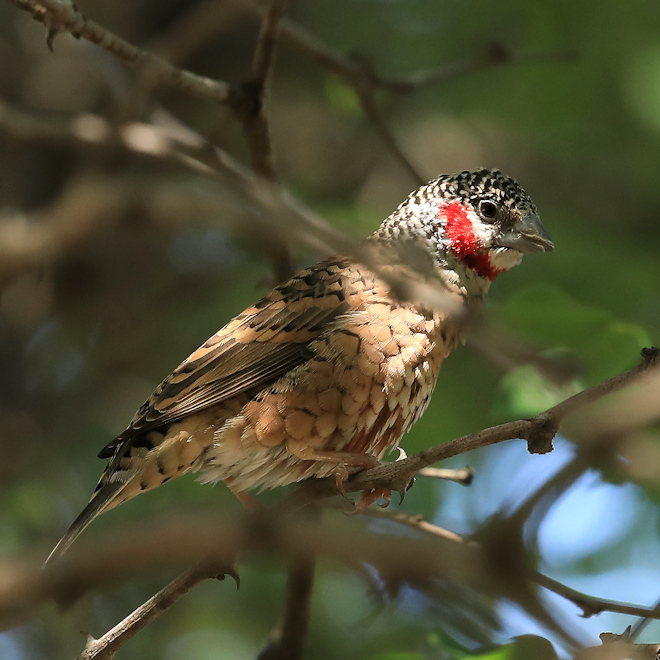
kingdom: Animalia
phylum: Chordata
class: Aves
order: Passeriformes
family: Estrildidae
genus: Amadina
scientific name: Amadina fasciata
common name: Cut-throat finch
